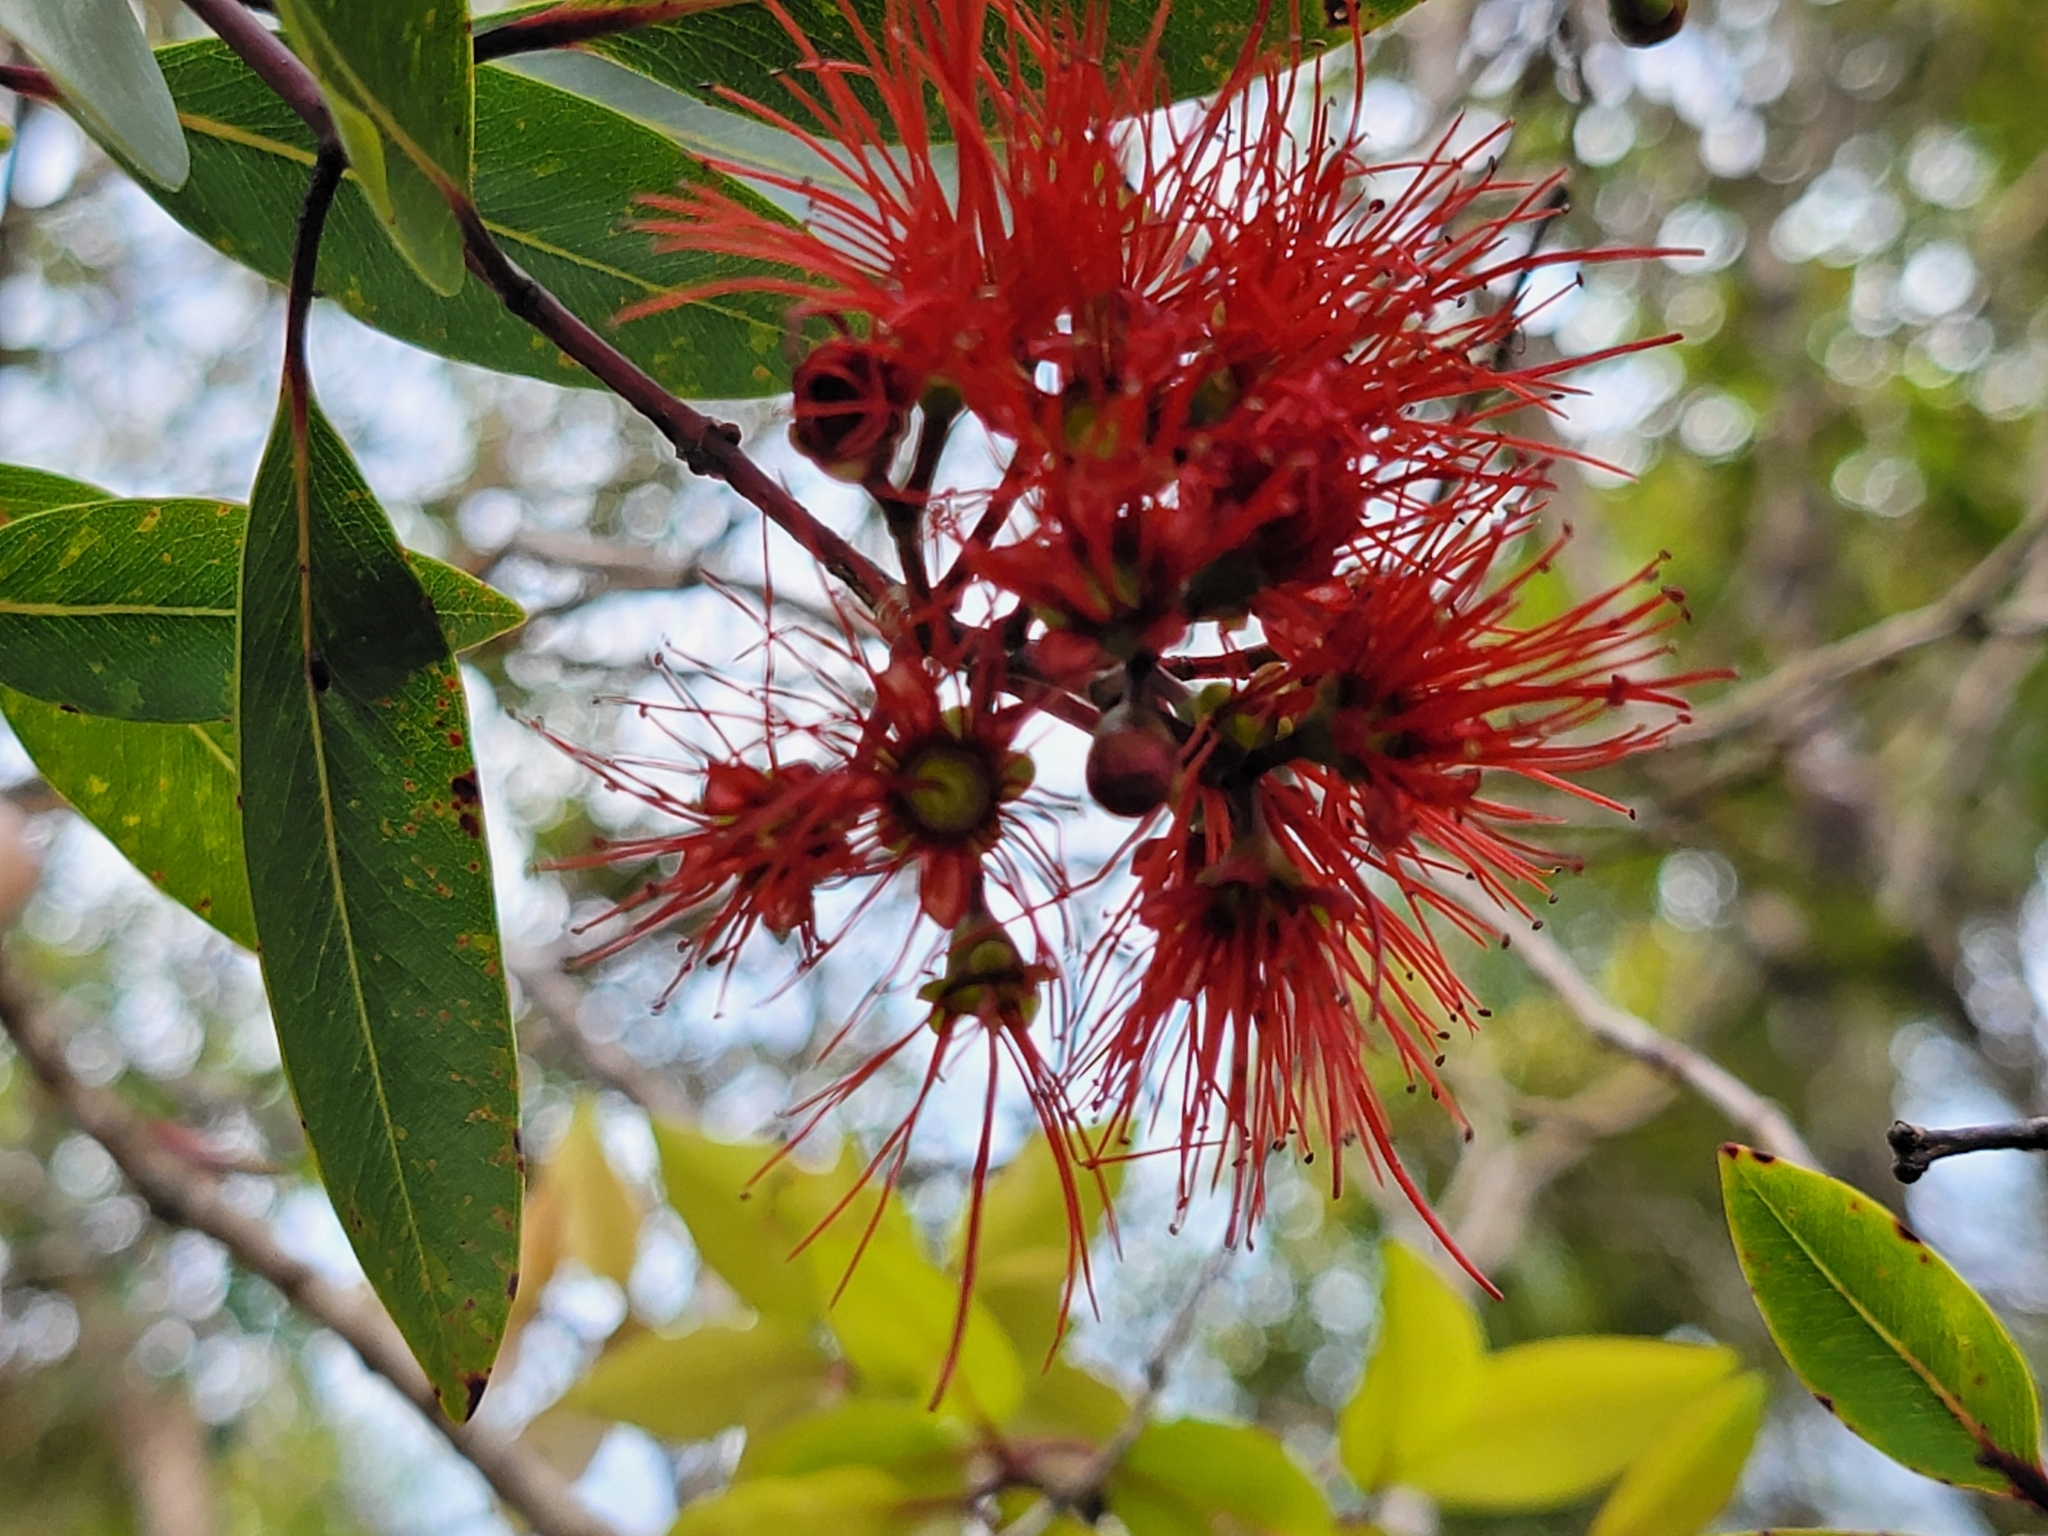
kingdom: Plantae
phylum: Tracheophyta
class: Magnoliopsida
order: Myrtales
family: Myrtaceae
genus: Metrosideros
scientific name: Metrosideros tremuloides
